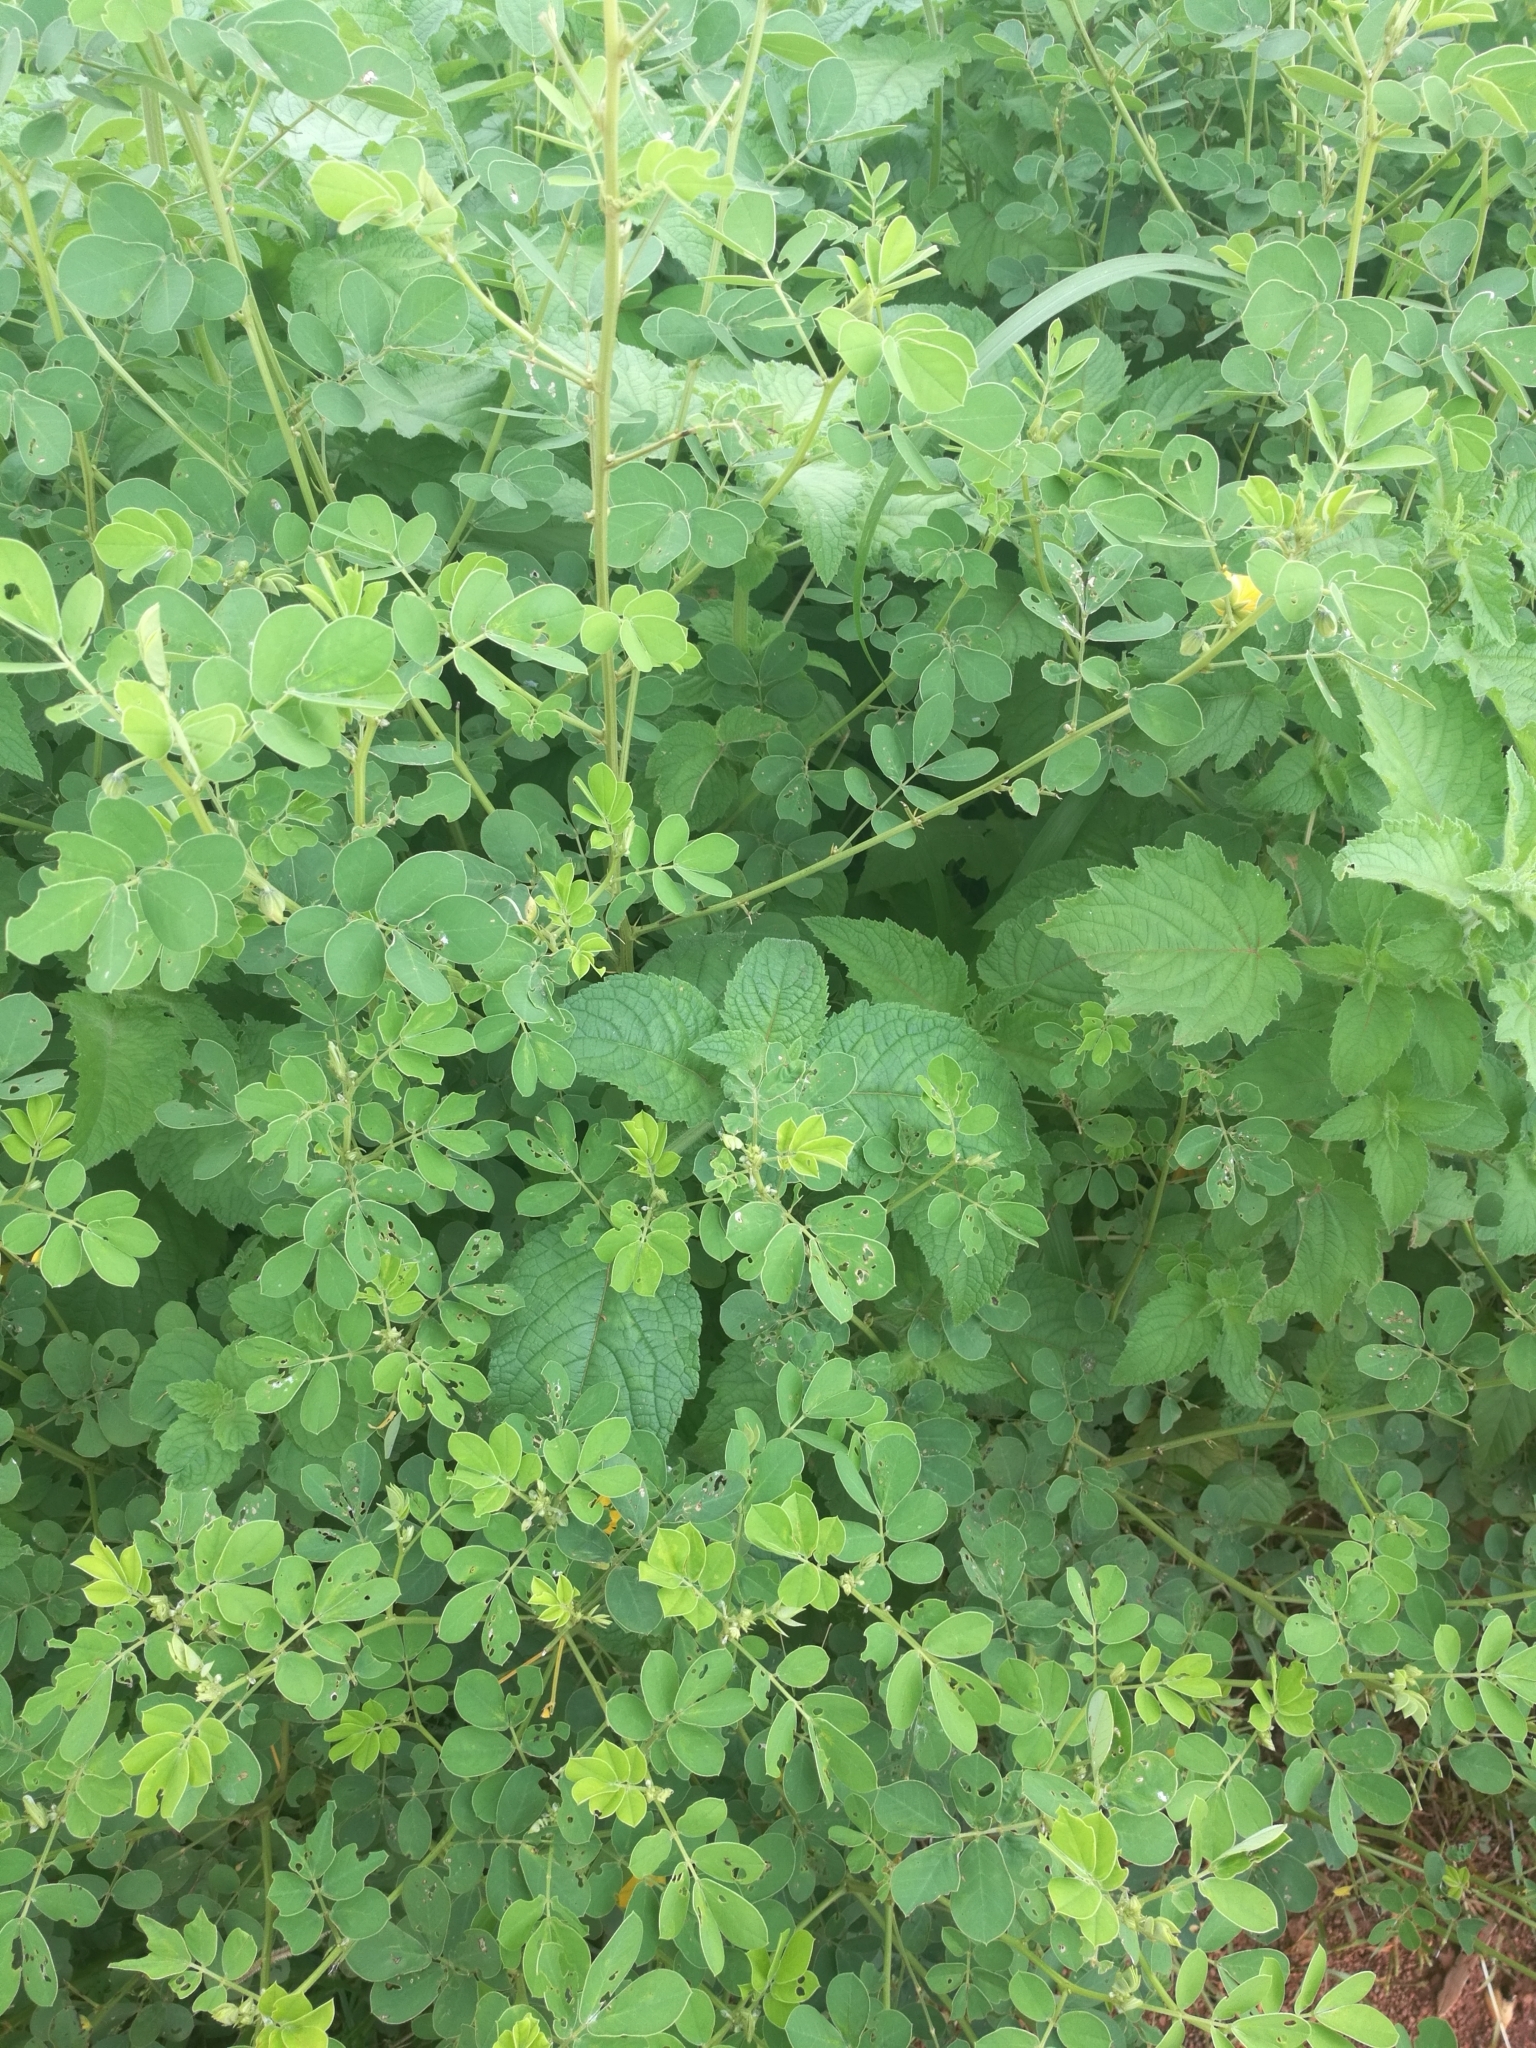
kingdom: Plantae
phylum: Tracheophyta
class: Magnoliopsida
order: Fabales
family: Fabaceae
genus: Senna
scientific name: Senna obtusifolia
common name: Java-bean
